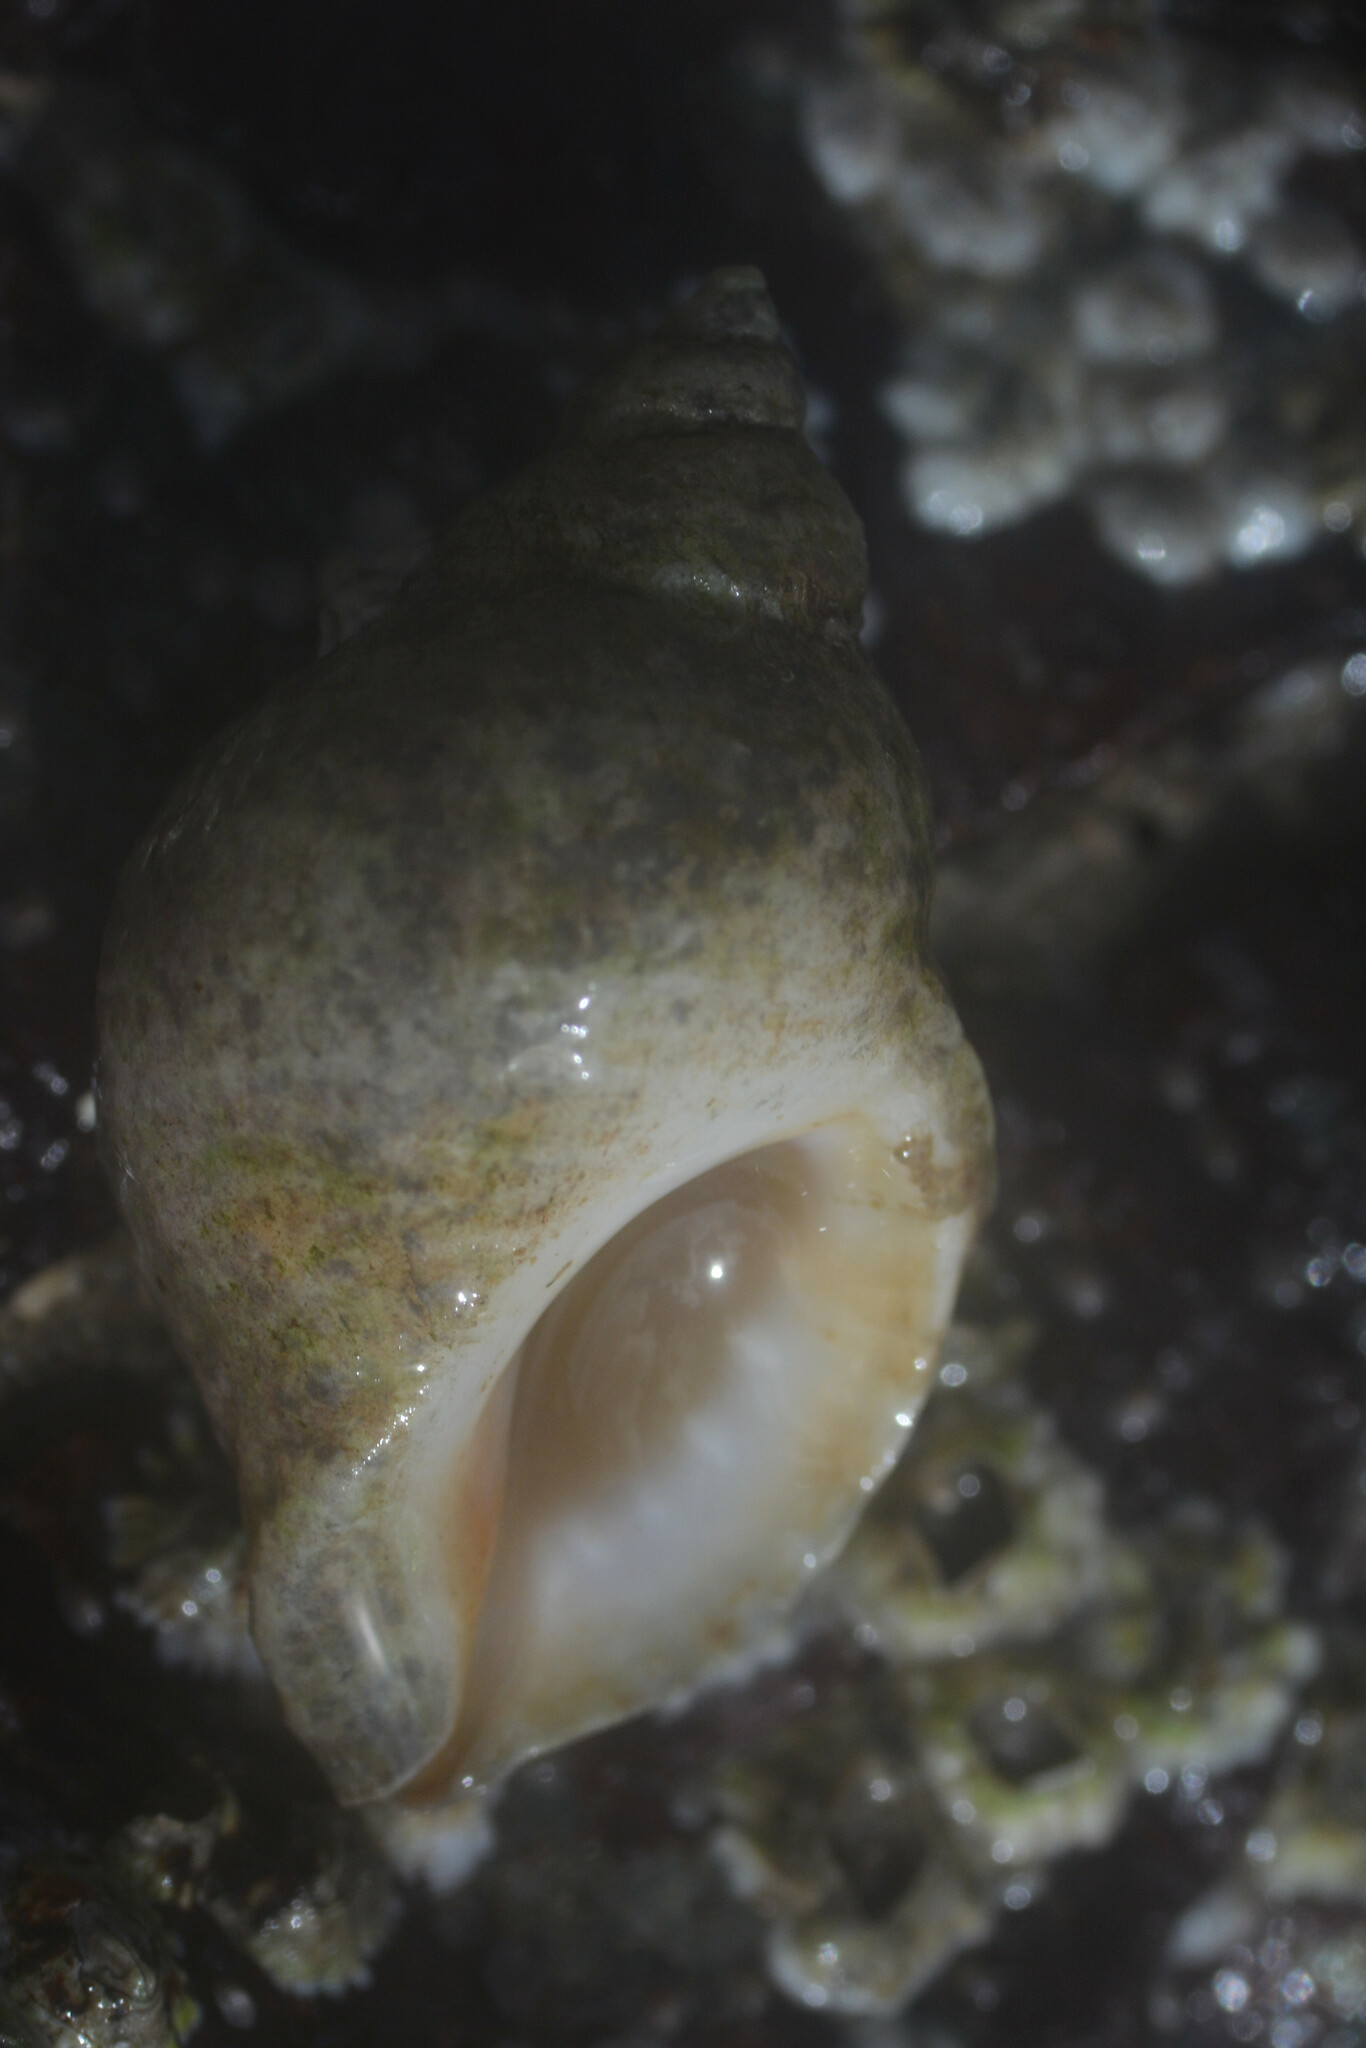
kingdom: Animalia
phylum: Mollusca
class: Gastropoda
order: Neogastropoda
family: Muricidae
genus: Nucella
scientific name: Nucella lapillus
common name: Dog whelk
